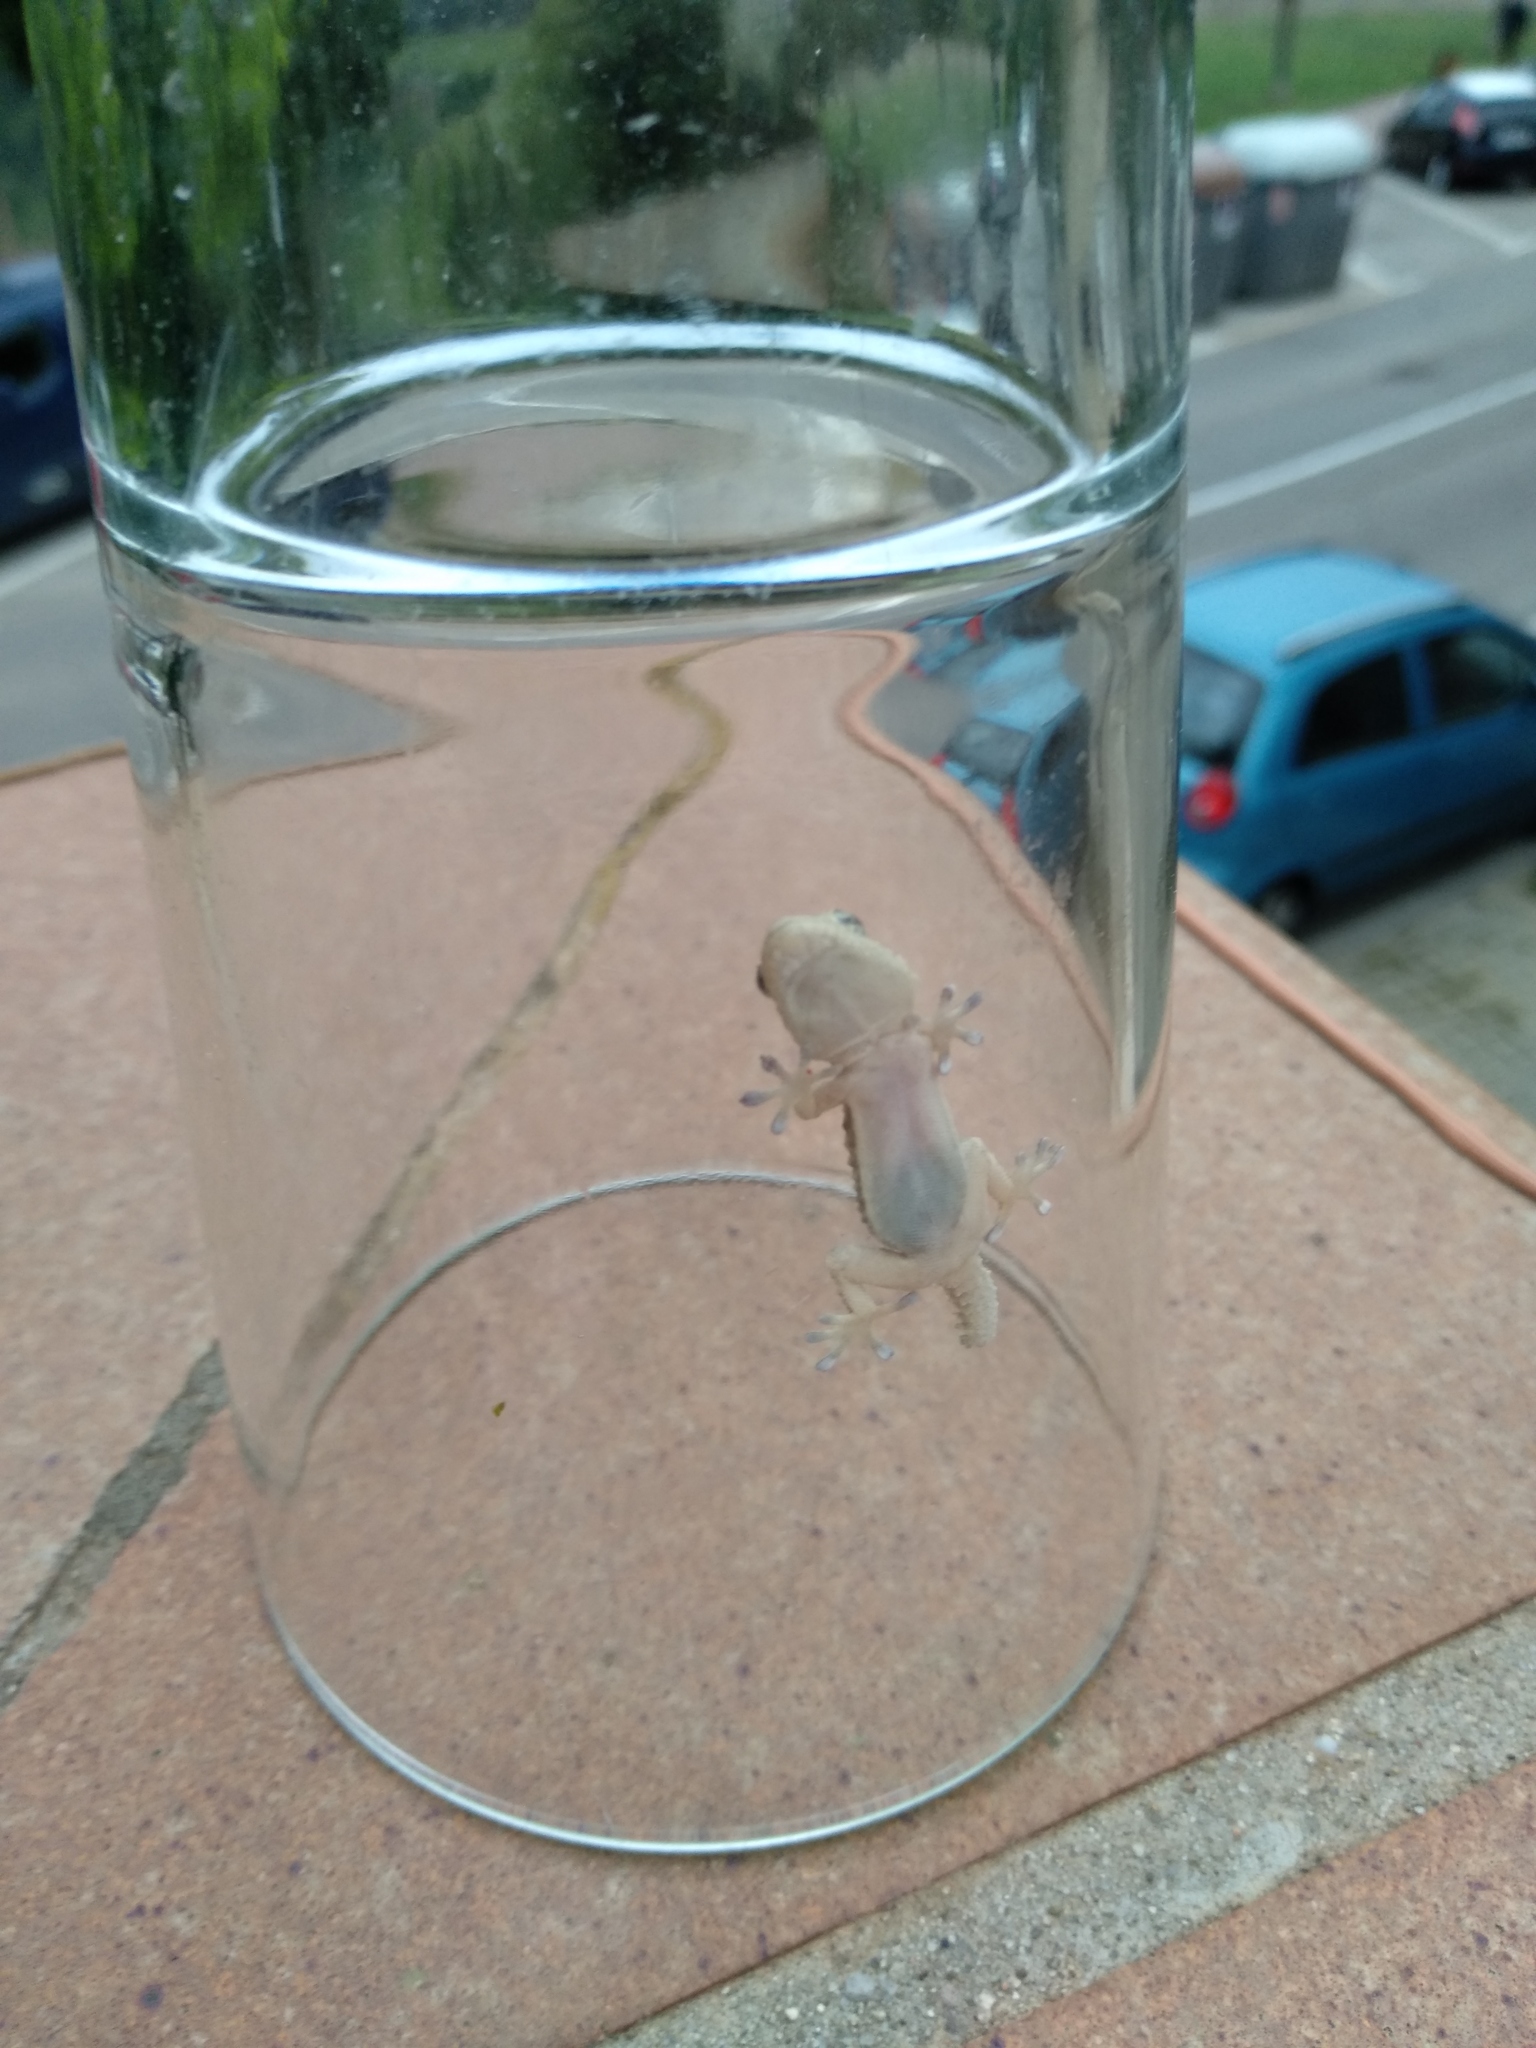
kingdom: Animalia
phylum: Chordata
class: Squamata
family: Phyllodactylidae
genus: Tarentola
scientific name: Tarentola mauritanica
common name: Moorish gecko
